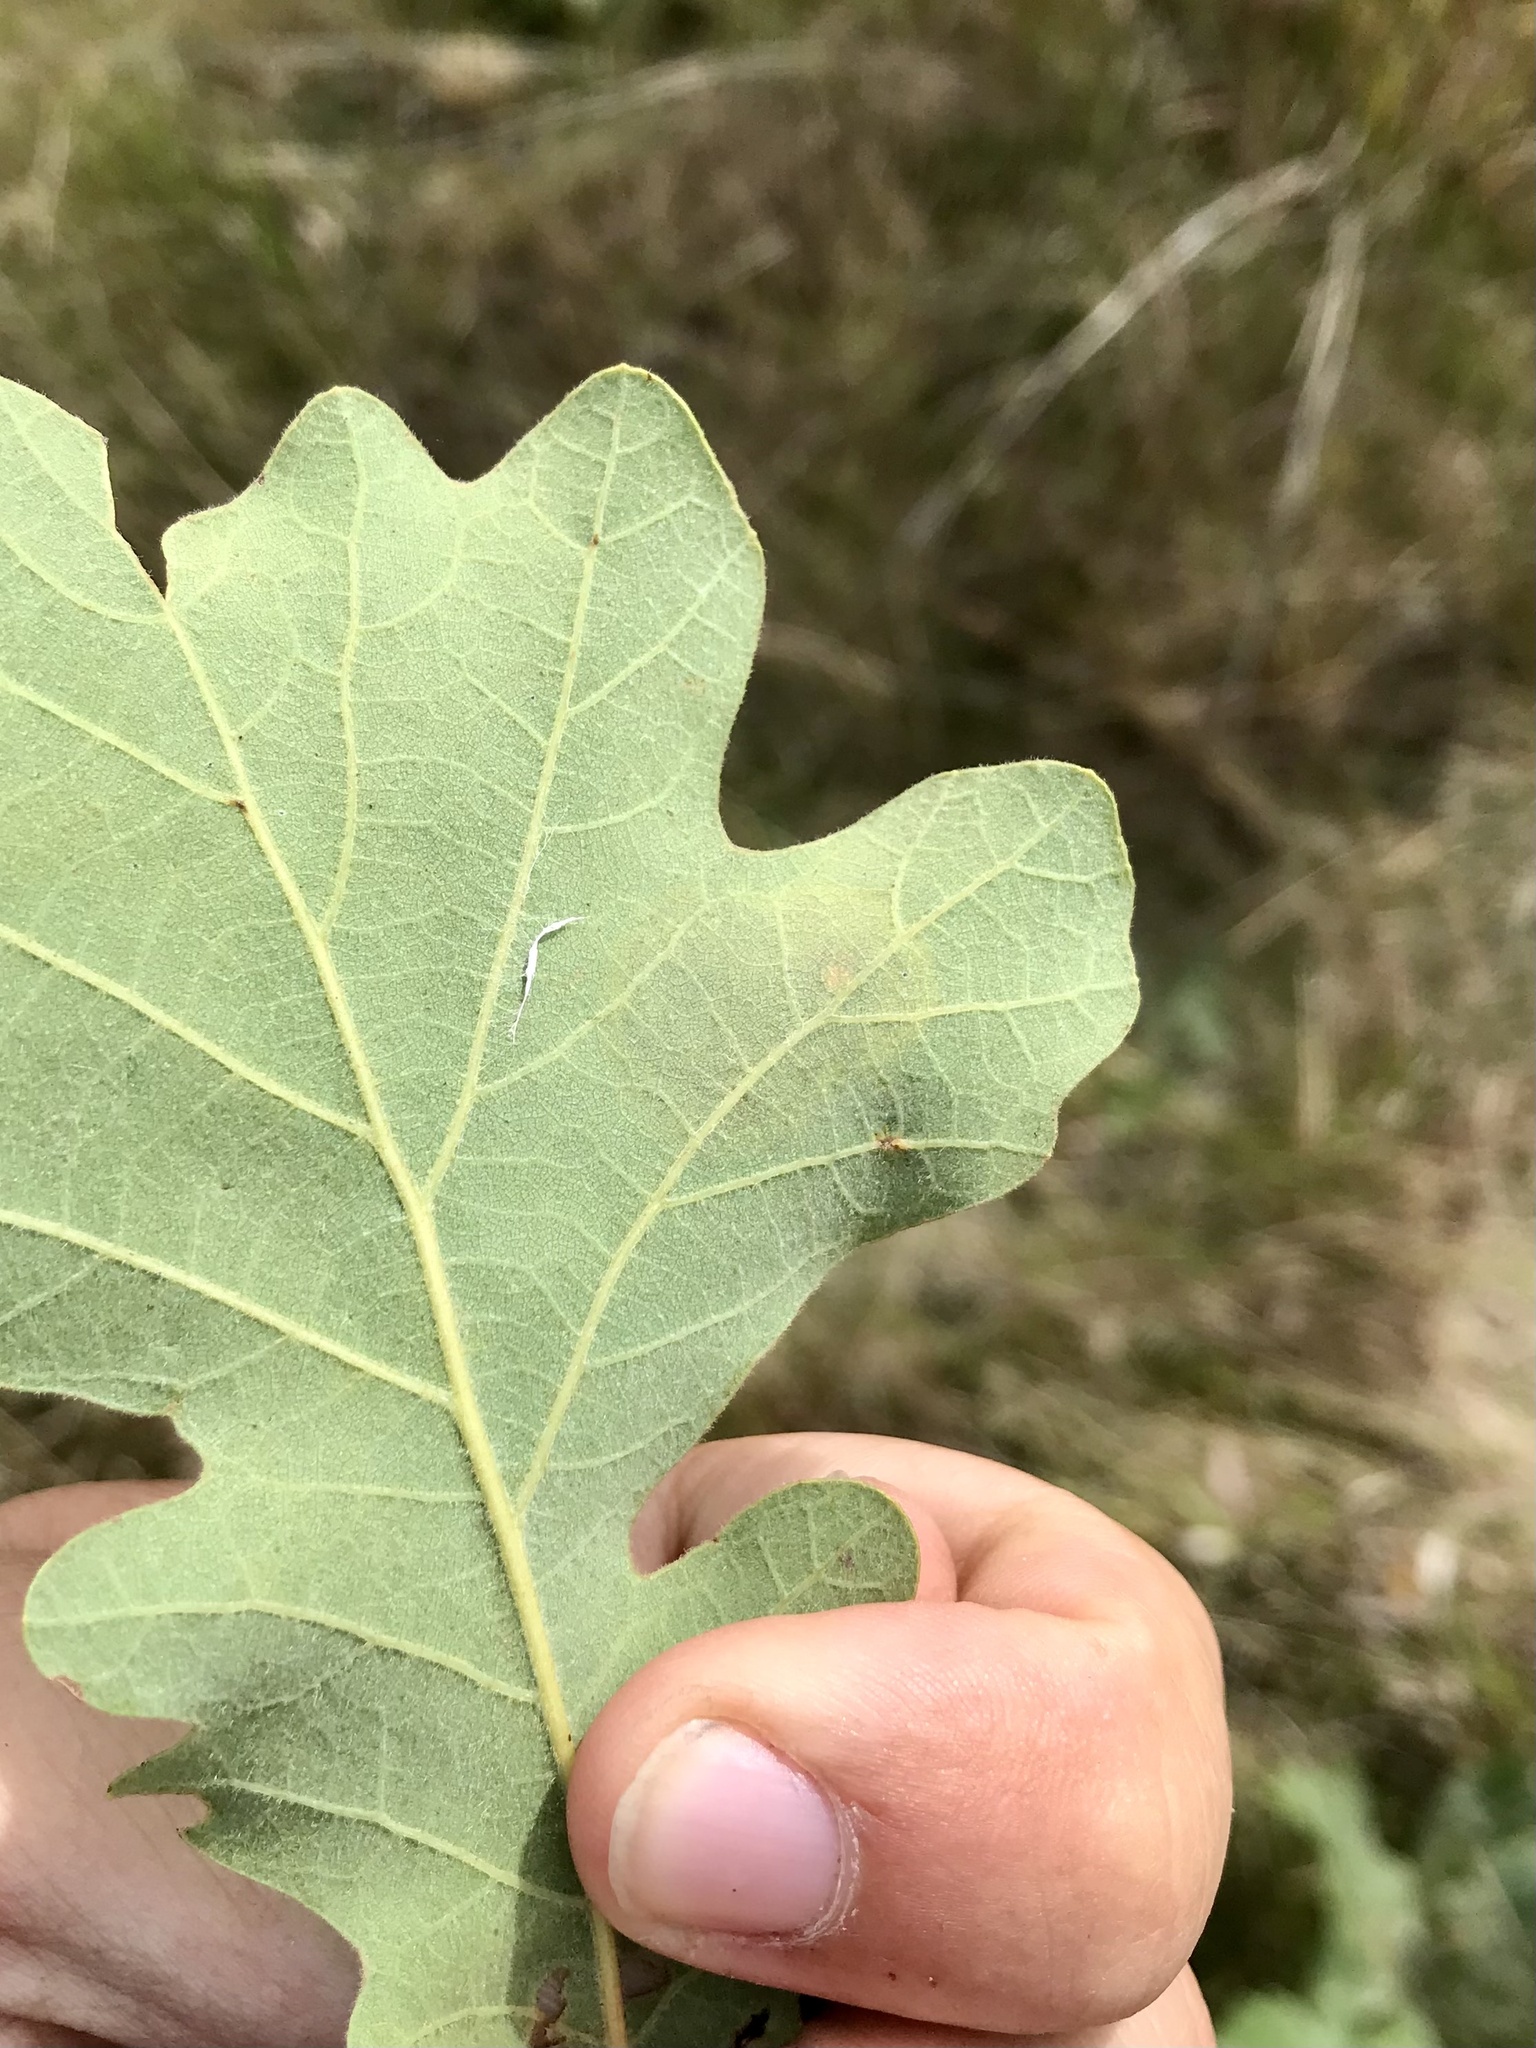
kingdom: Animalia
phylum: Arthropoda
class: Insecta
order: Lepidoptera
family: Gracillariidae
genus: Cameraria
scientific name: Cameraria
